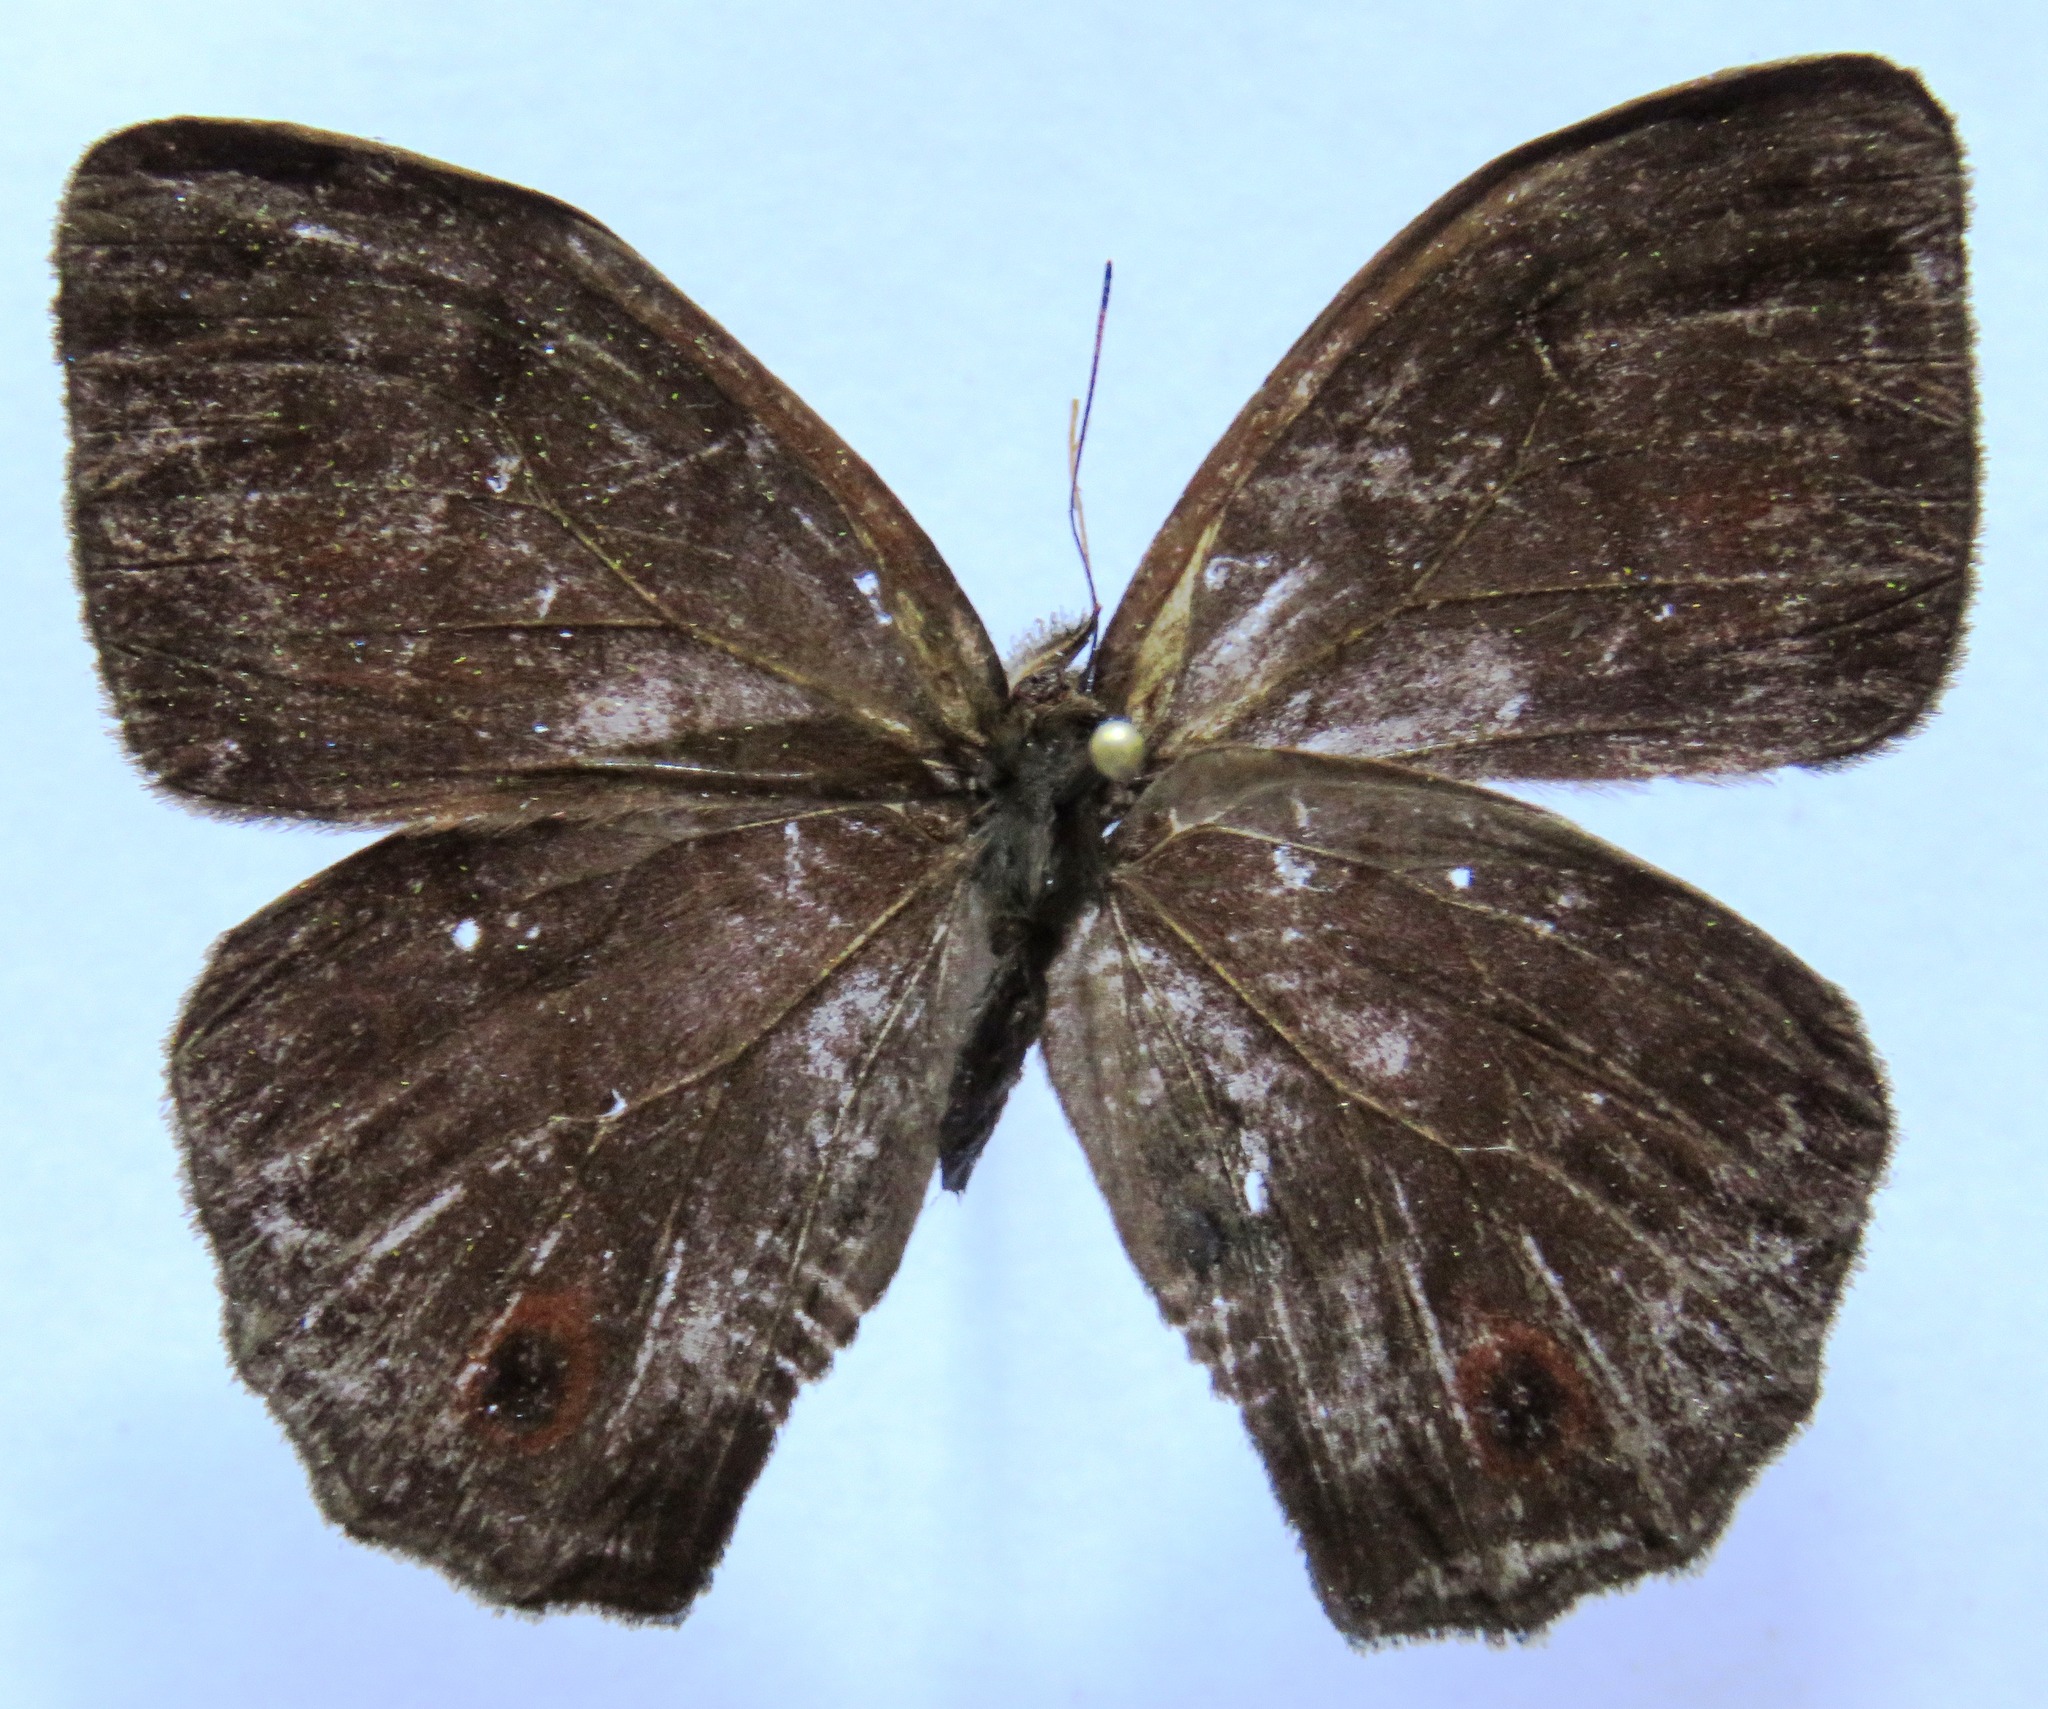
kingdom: Animalia
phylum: Arthropoda
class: Insecta
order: Lepidoptera
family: Nymphalidae
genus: Satyrotaygetis
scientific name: Satyrotaygetis satyrina
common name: Wide-bordered satyr
